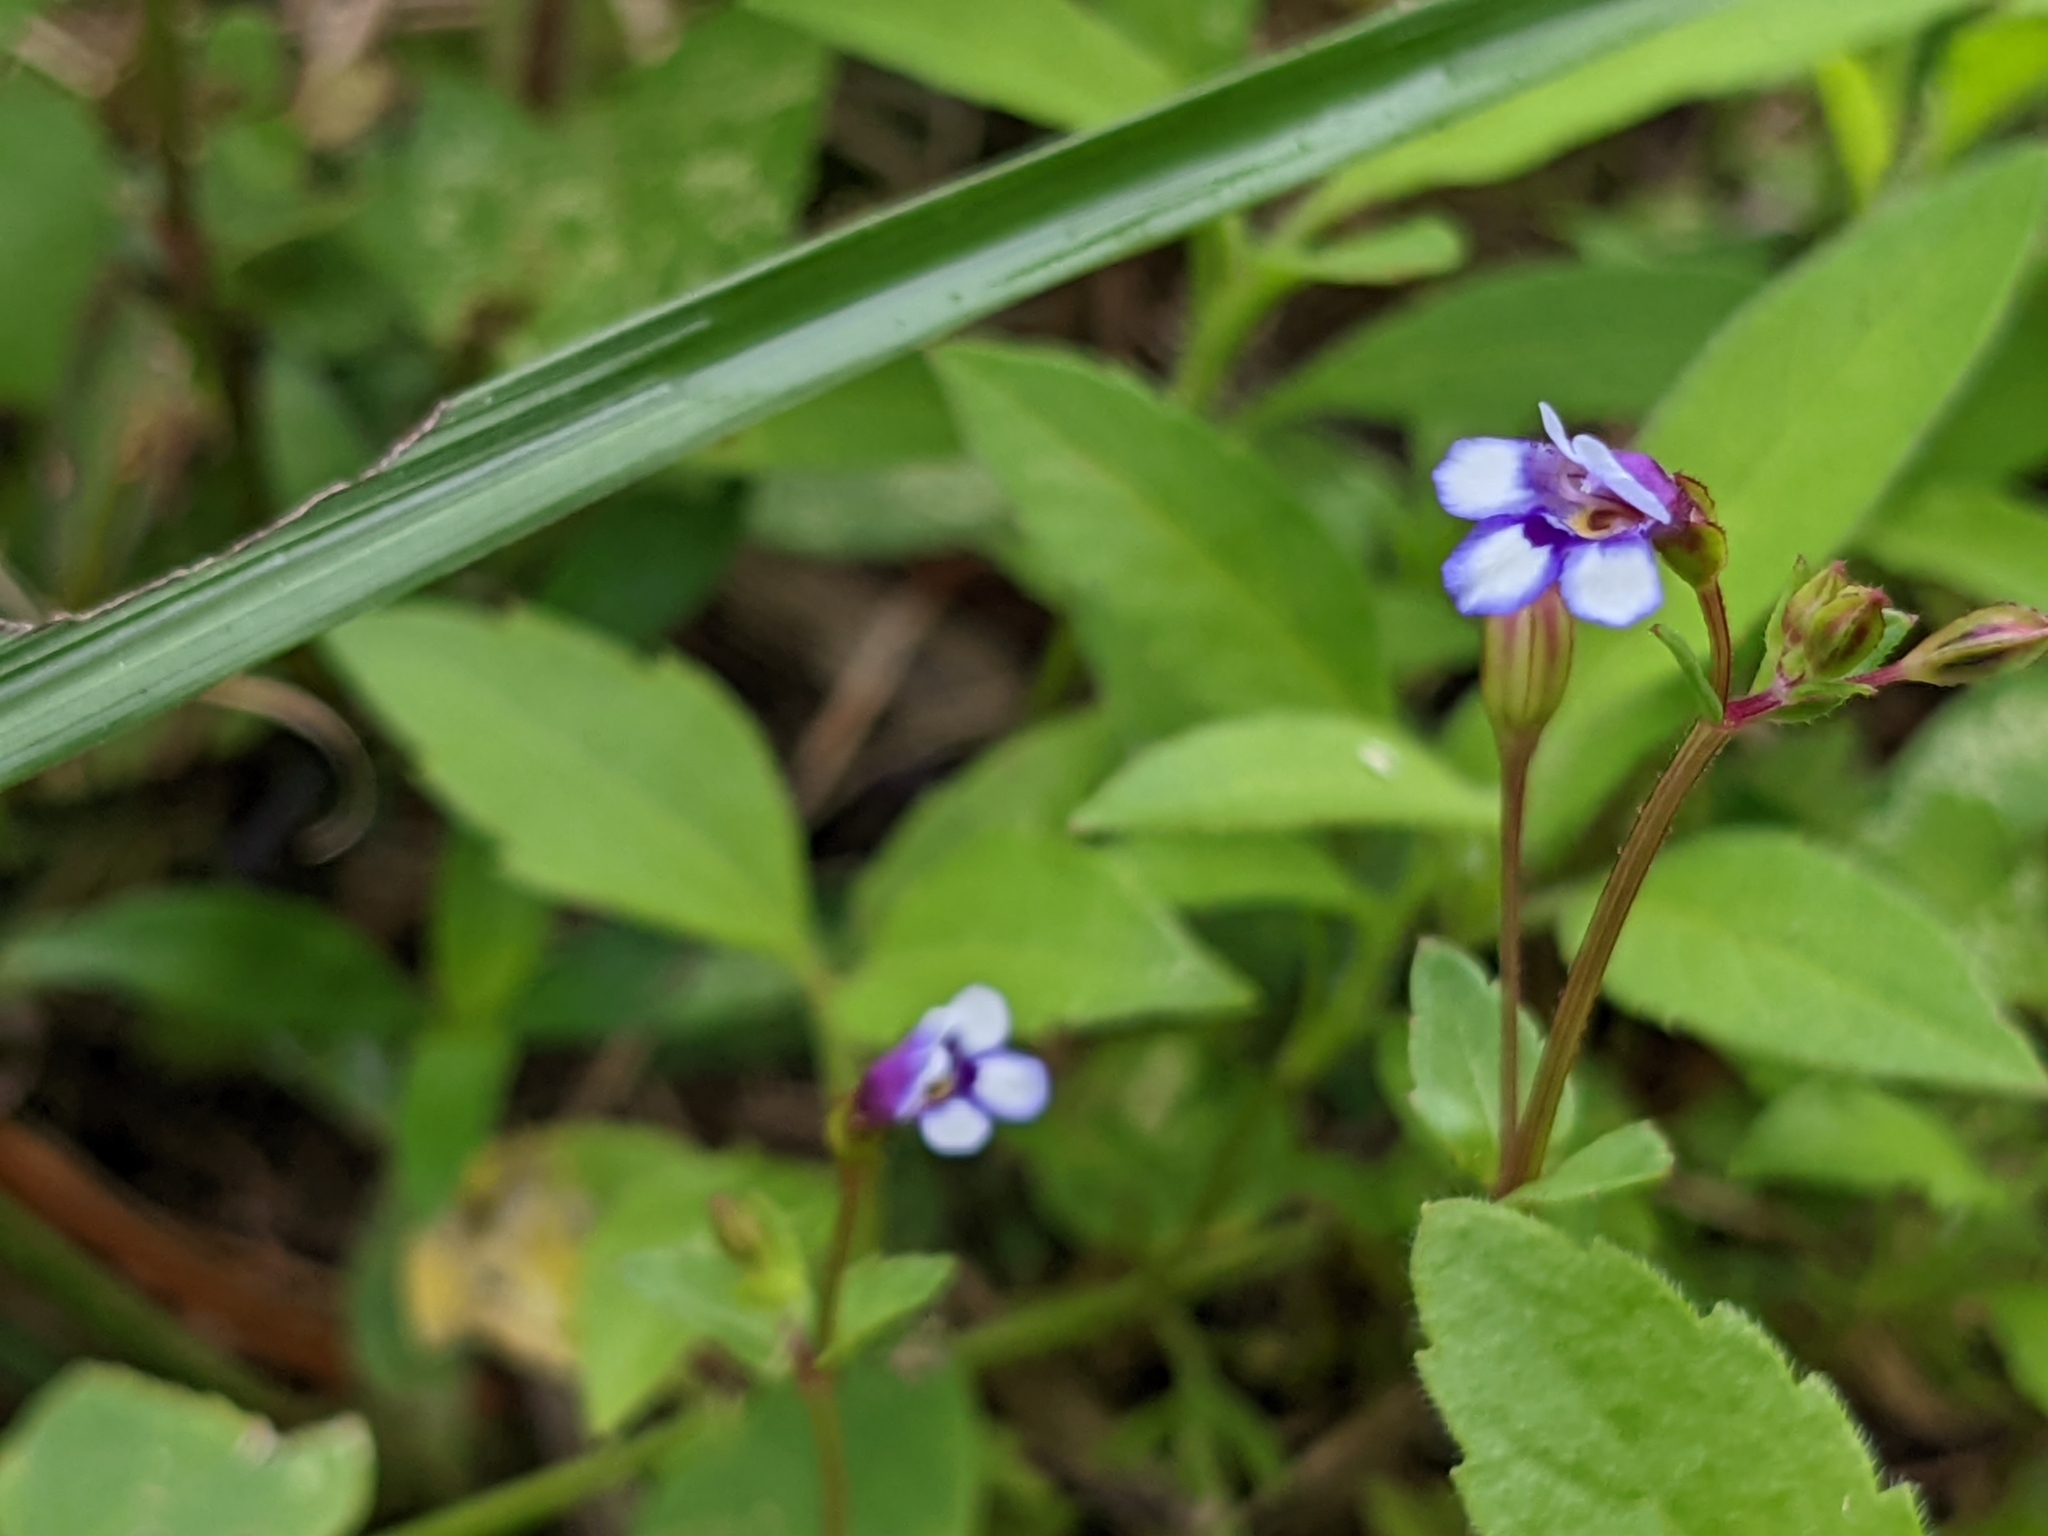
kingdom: Plantae
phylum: Tracheophyta
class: Magnoliopsida
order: Lamiales
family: Linderniaceae
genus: Torenia
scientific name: Torenia crustacea
